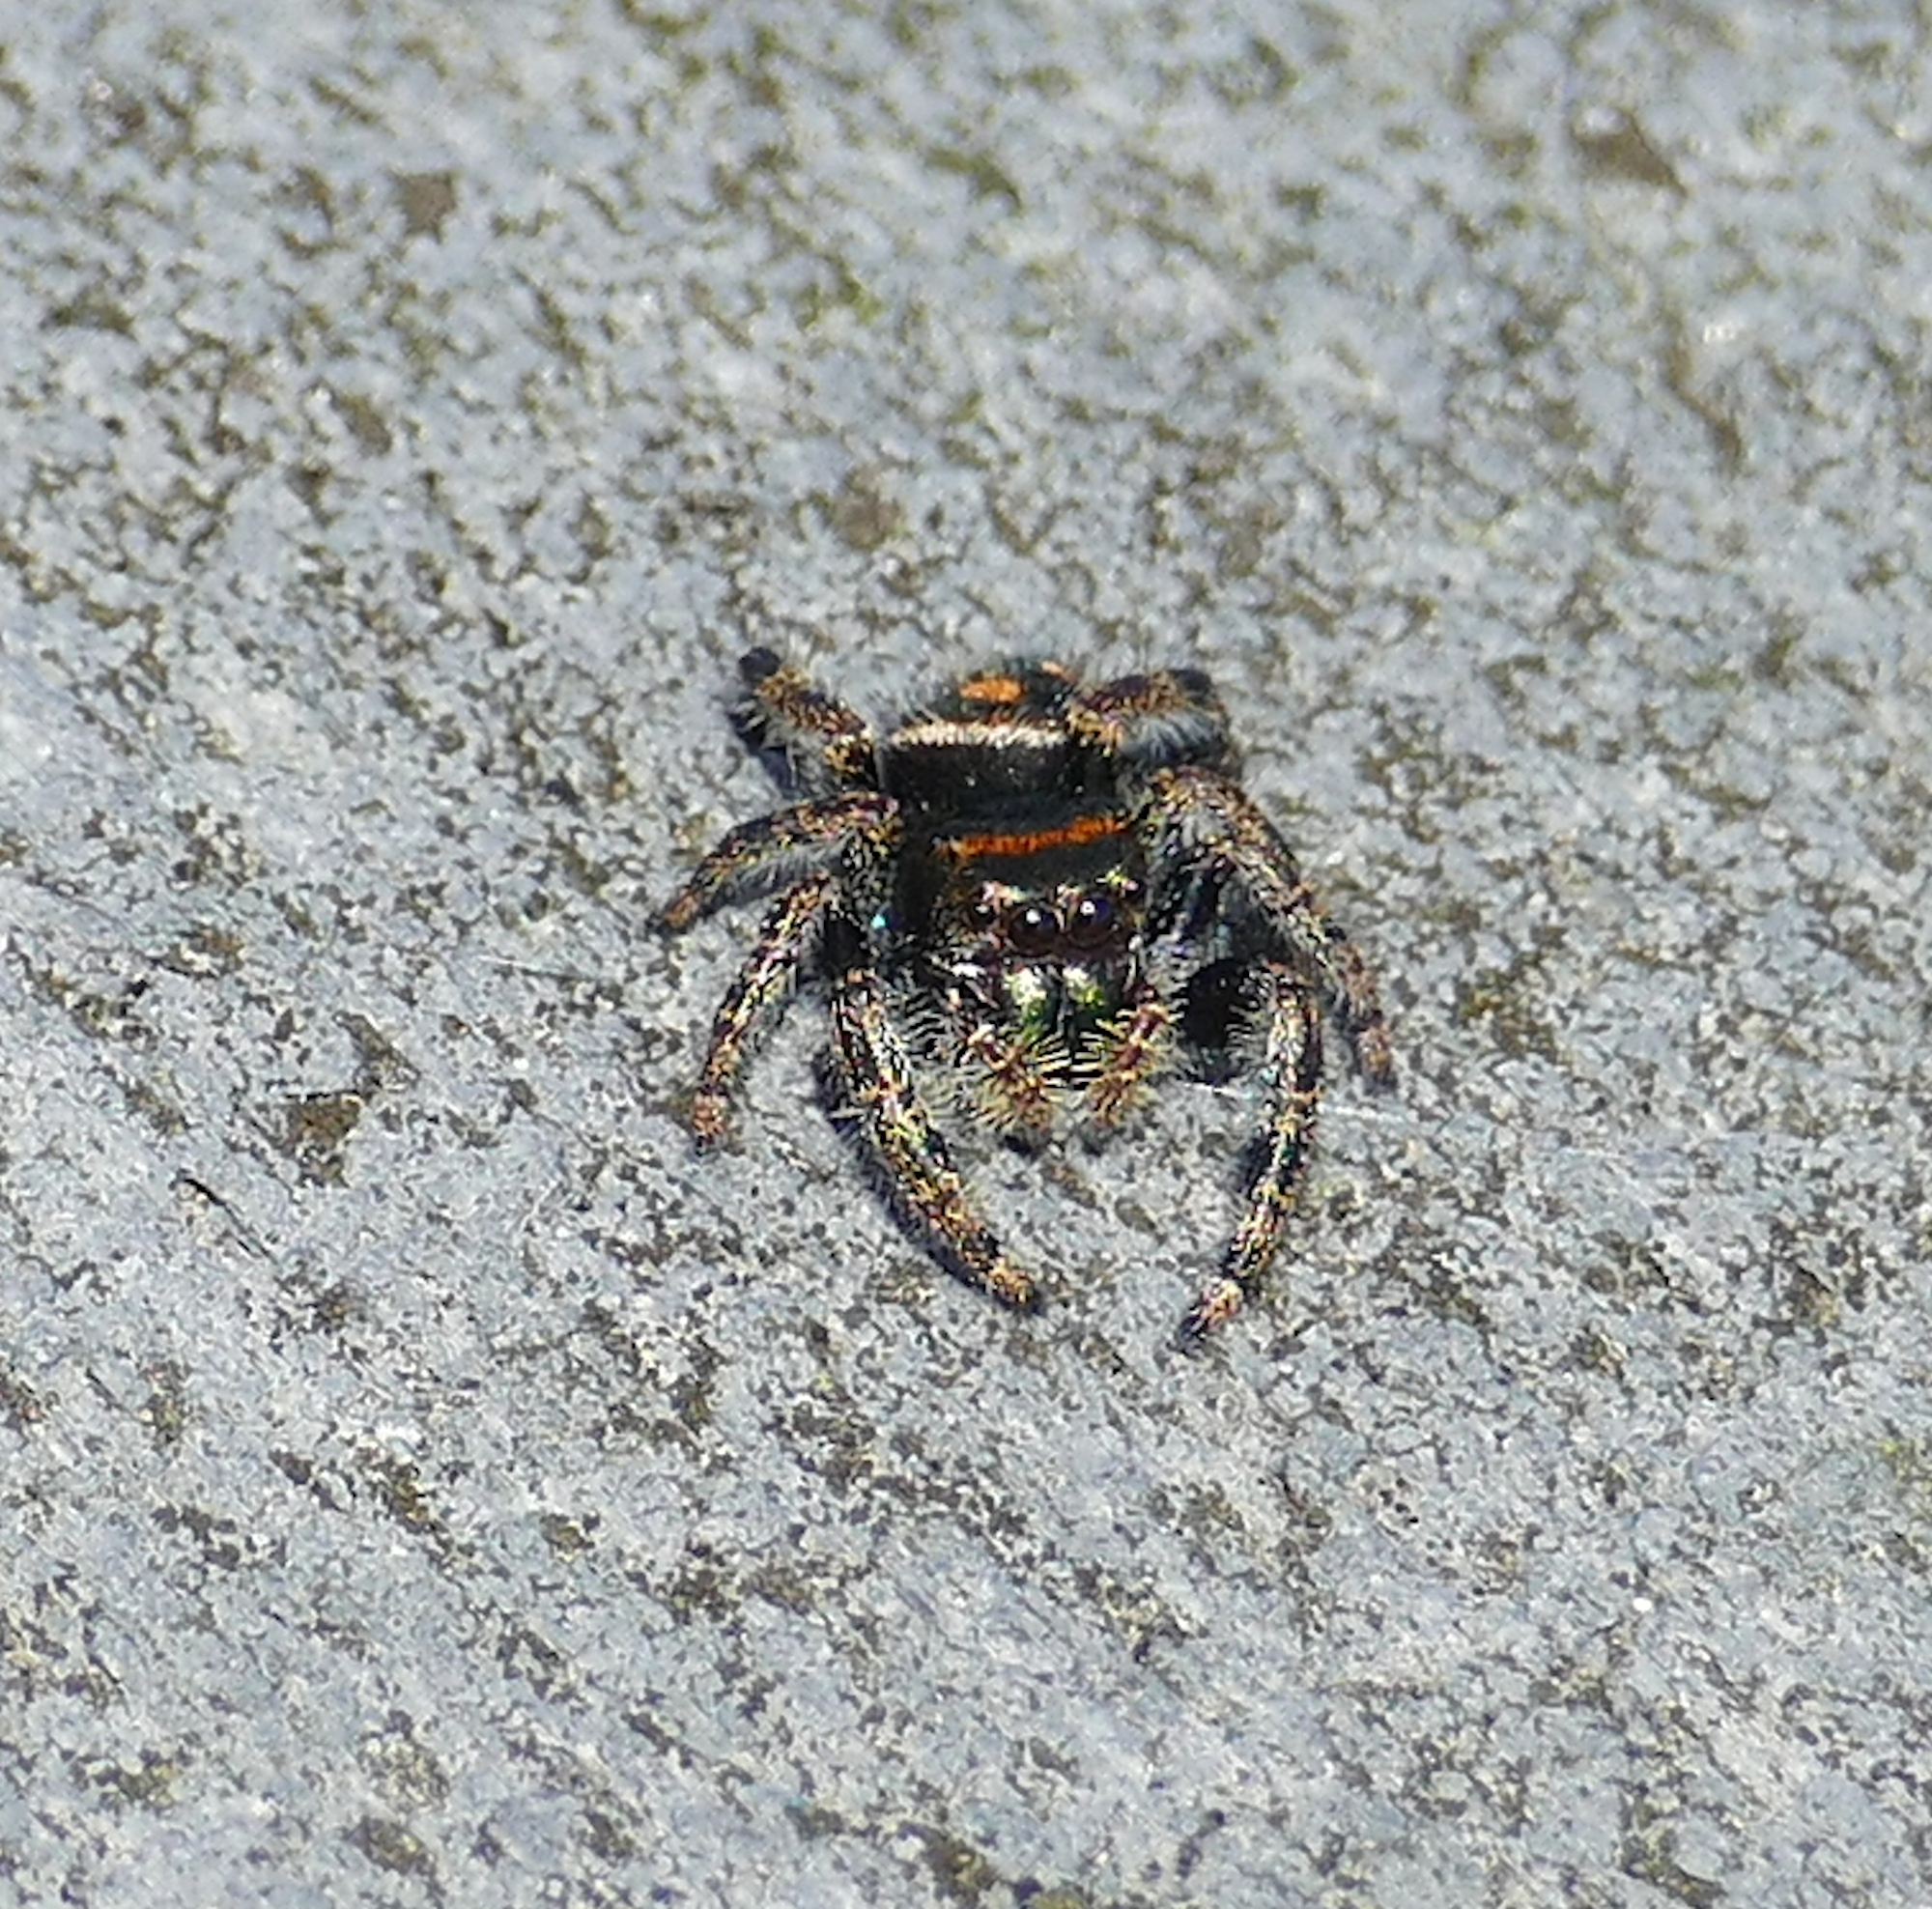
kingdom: Animalia
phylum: Arthropoda
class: Arachnida
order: Araneae
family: Salticidae
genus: Phidippus
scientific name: Phidippus audax
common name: Bold jumper
